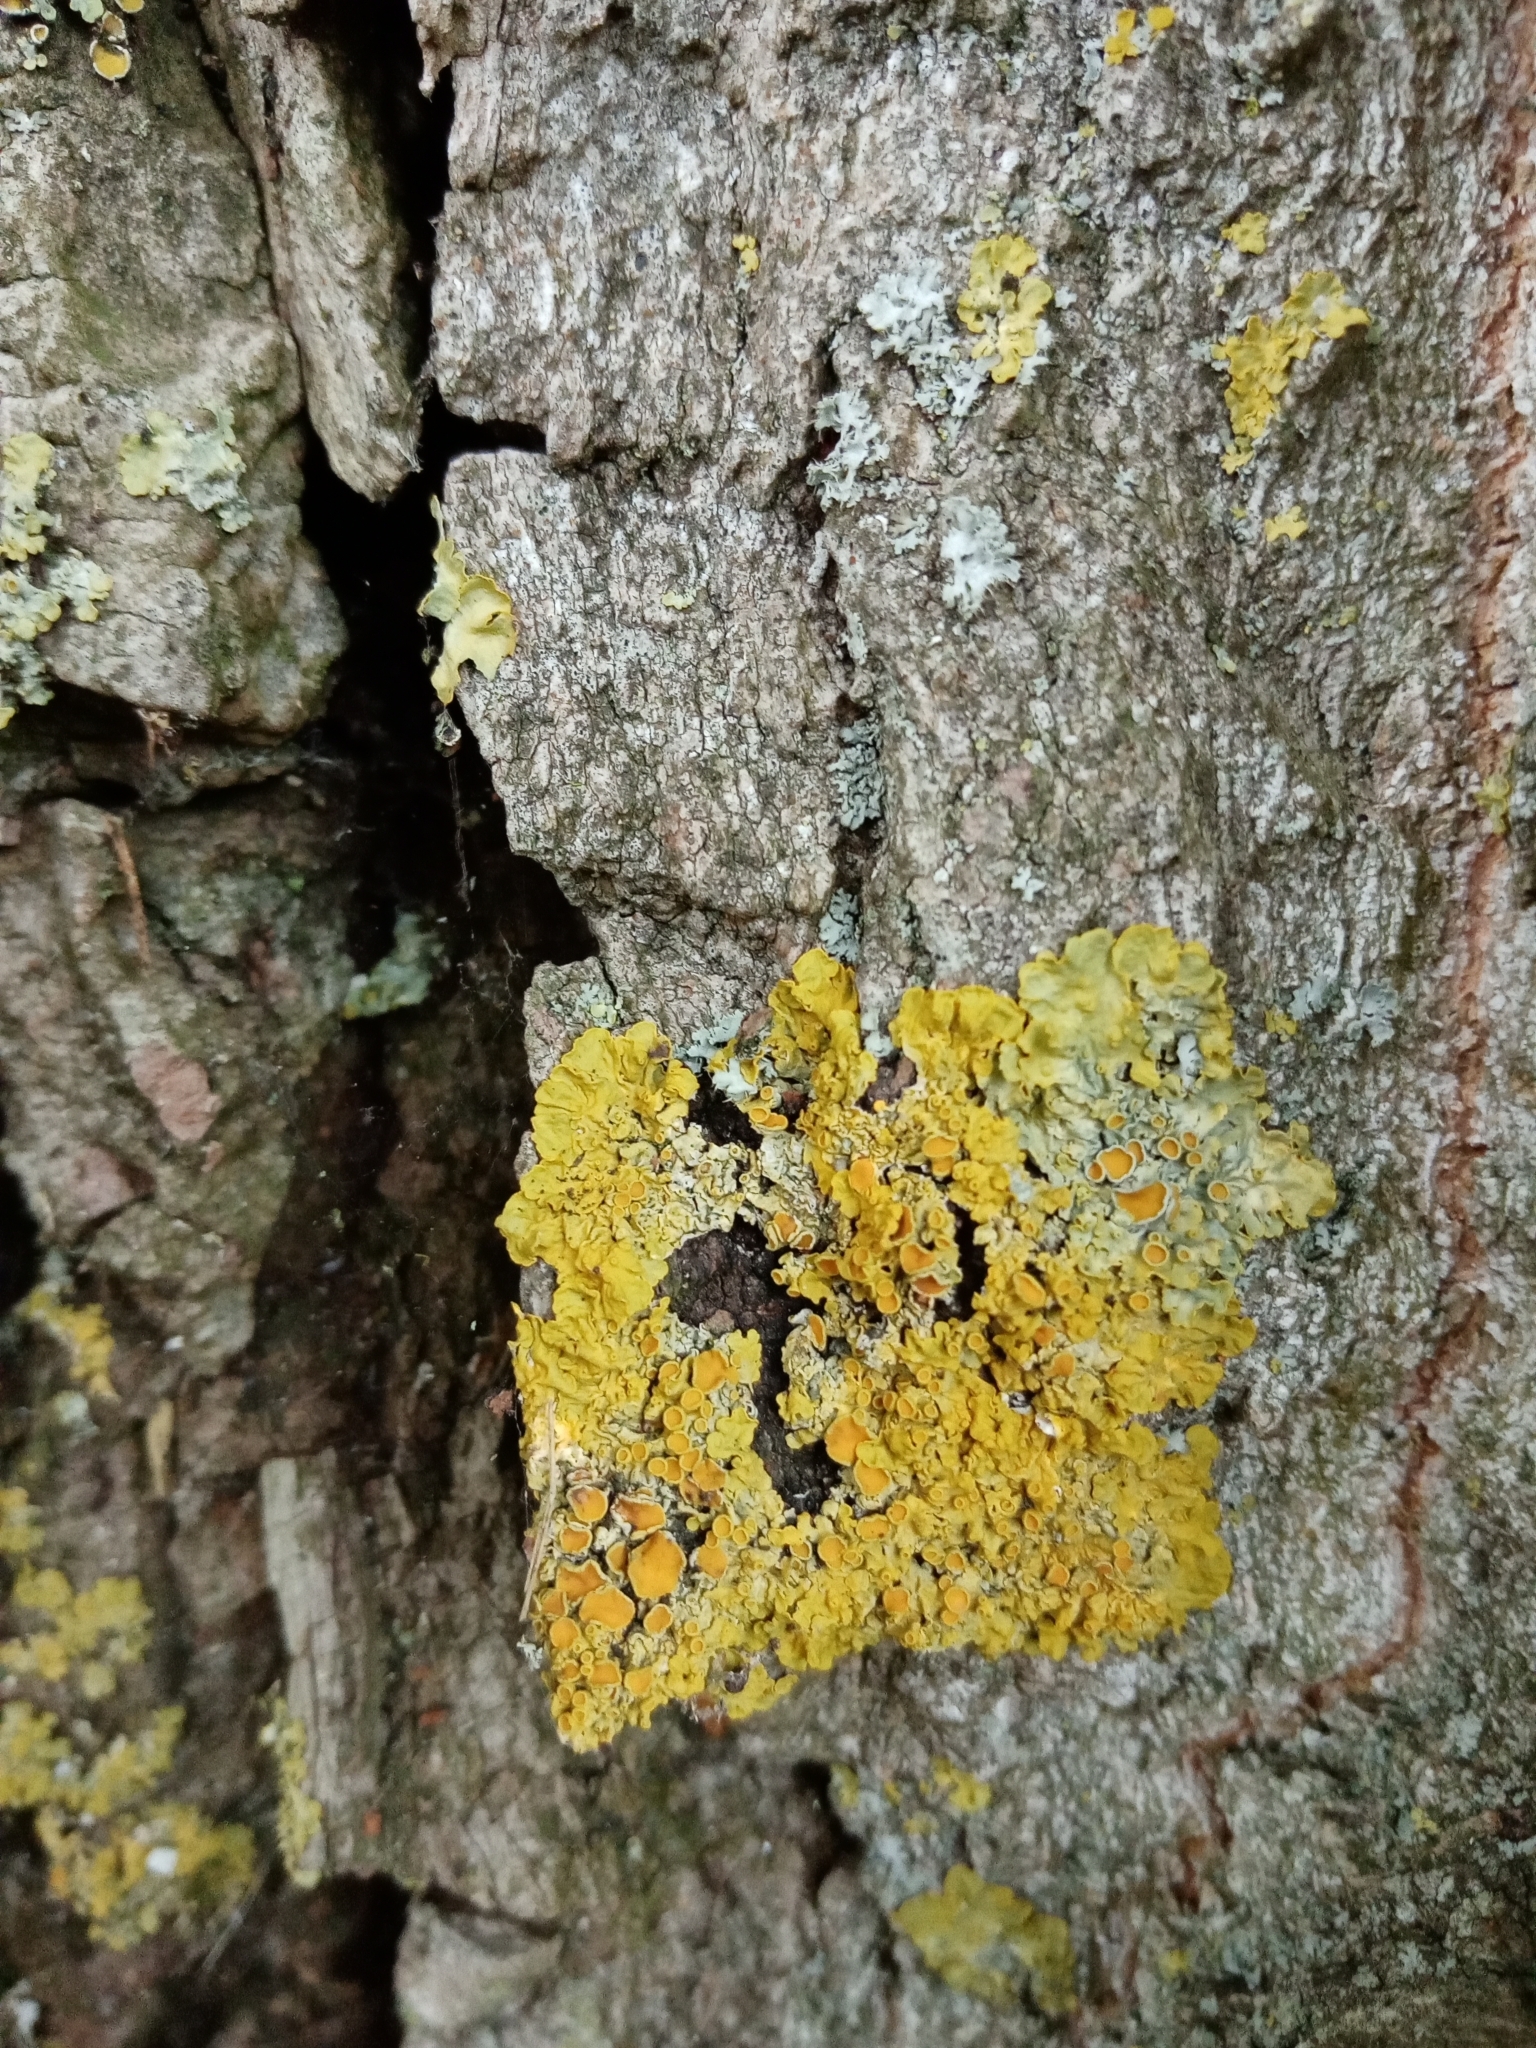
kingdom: Fungi
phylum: Ascomycota
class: Lecanoromycetes
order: Teloschistales
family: Teloschistaceae
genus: Xanthoria
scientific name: Xanthoria parietina
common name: Common orange lichen
